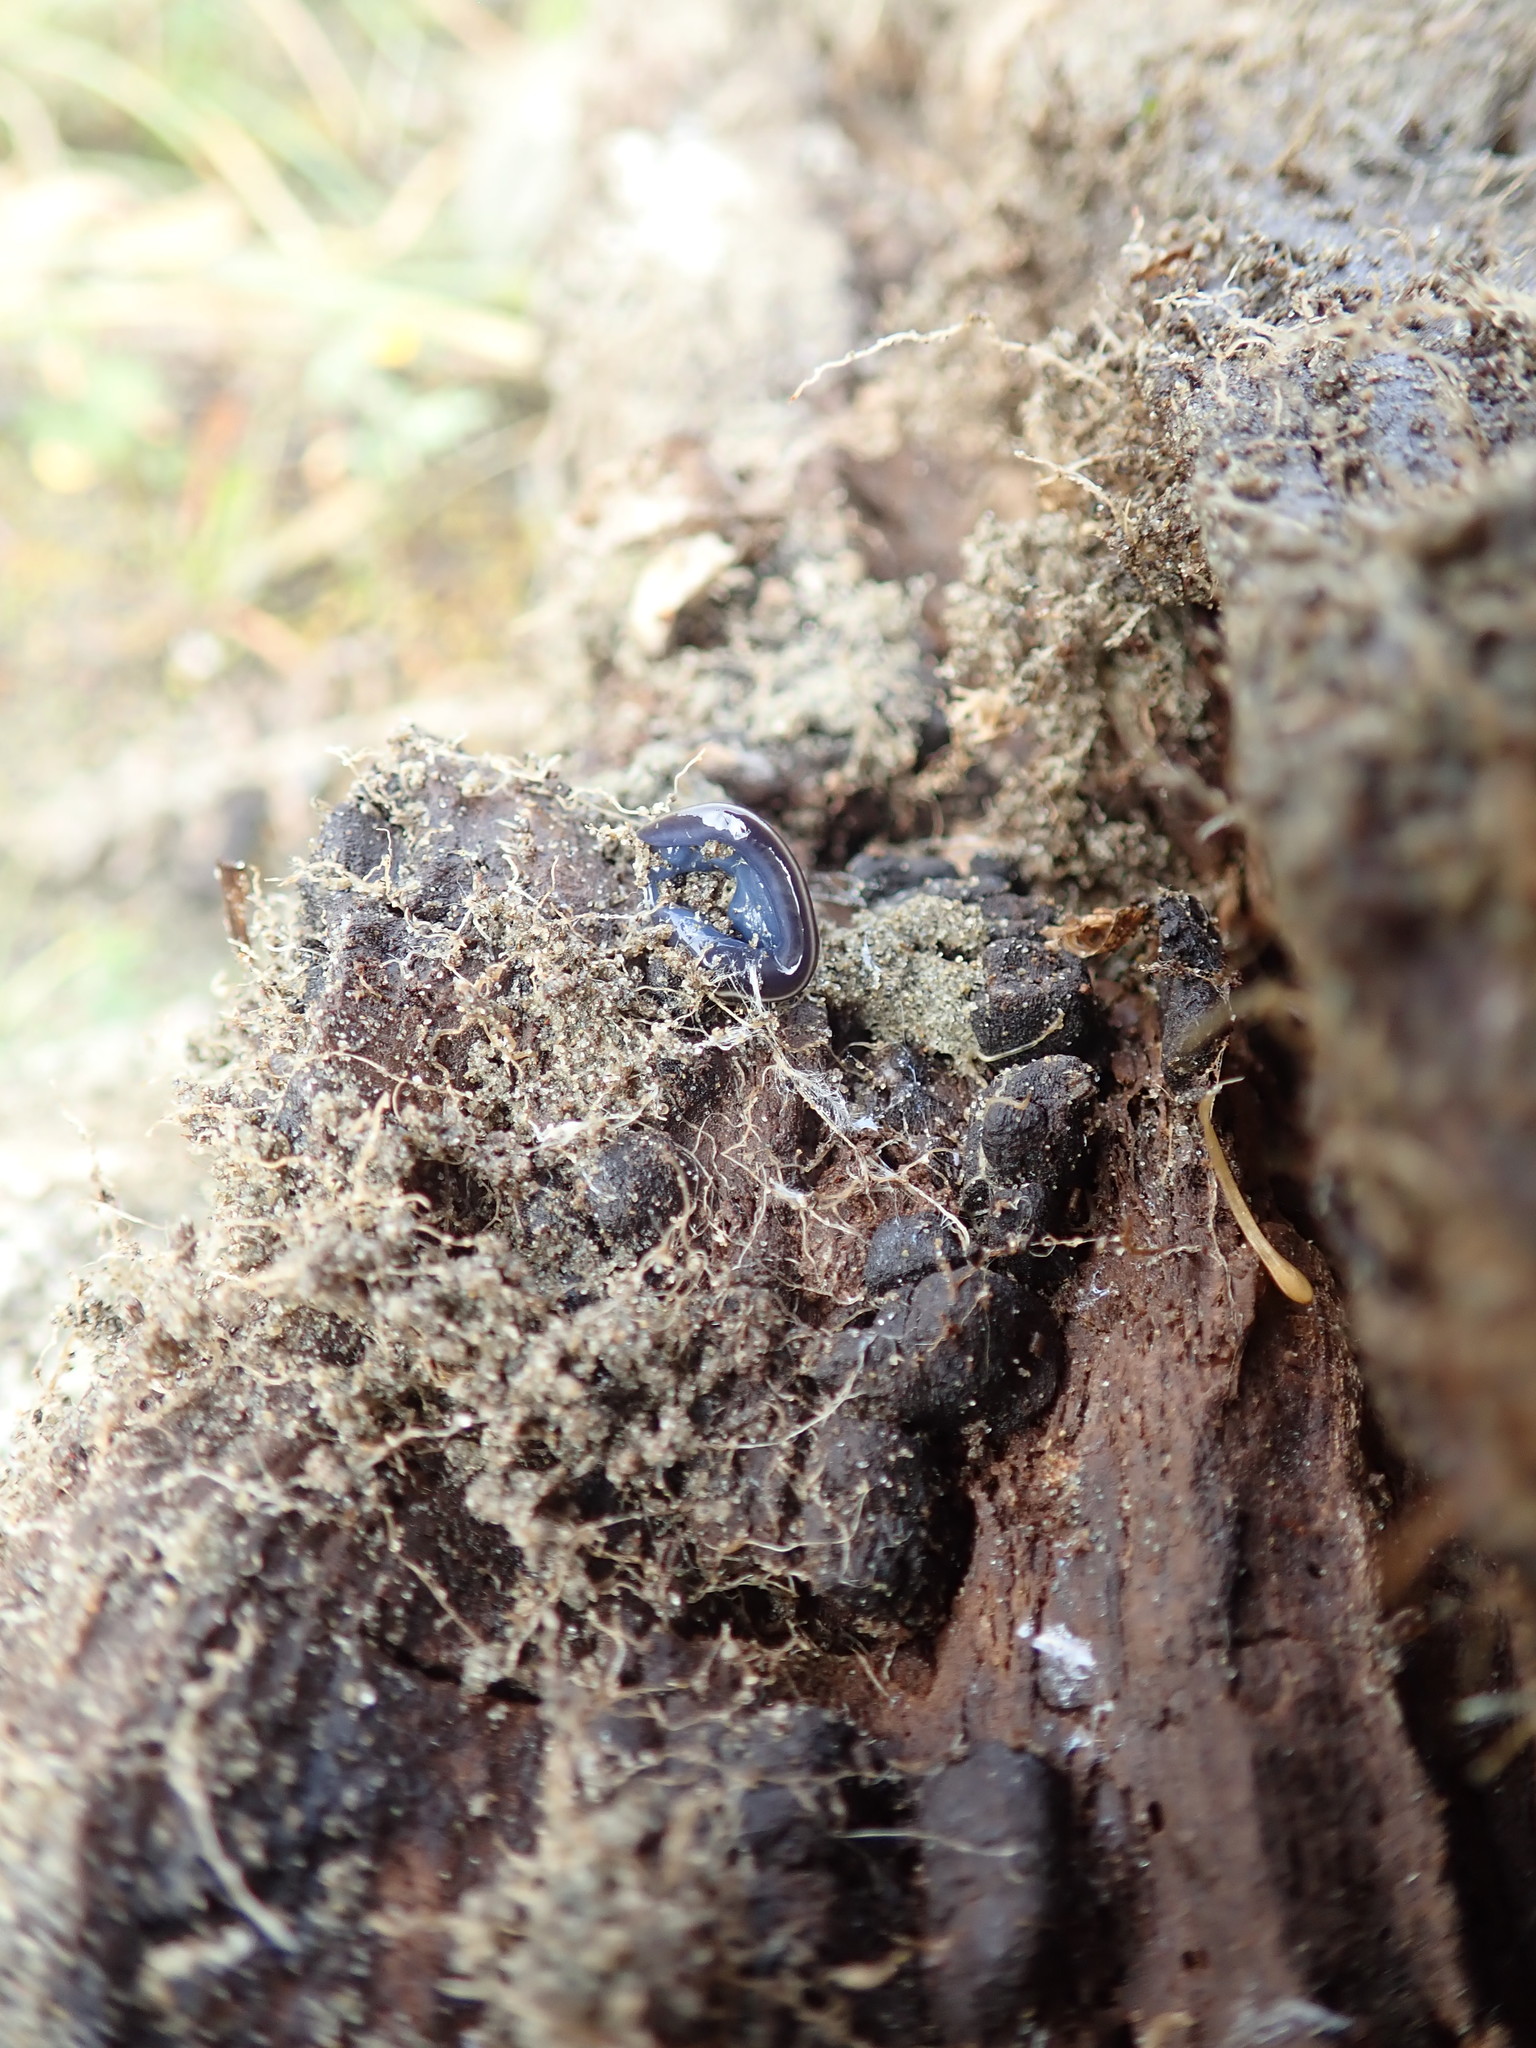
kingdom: Animalia
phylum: Platyhelminthes
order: Tricladida
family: Geoplanidae
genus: Caenoplana
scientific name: Caenoplana coerulea
